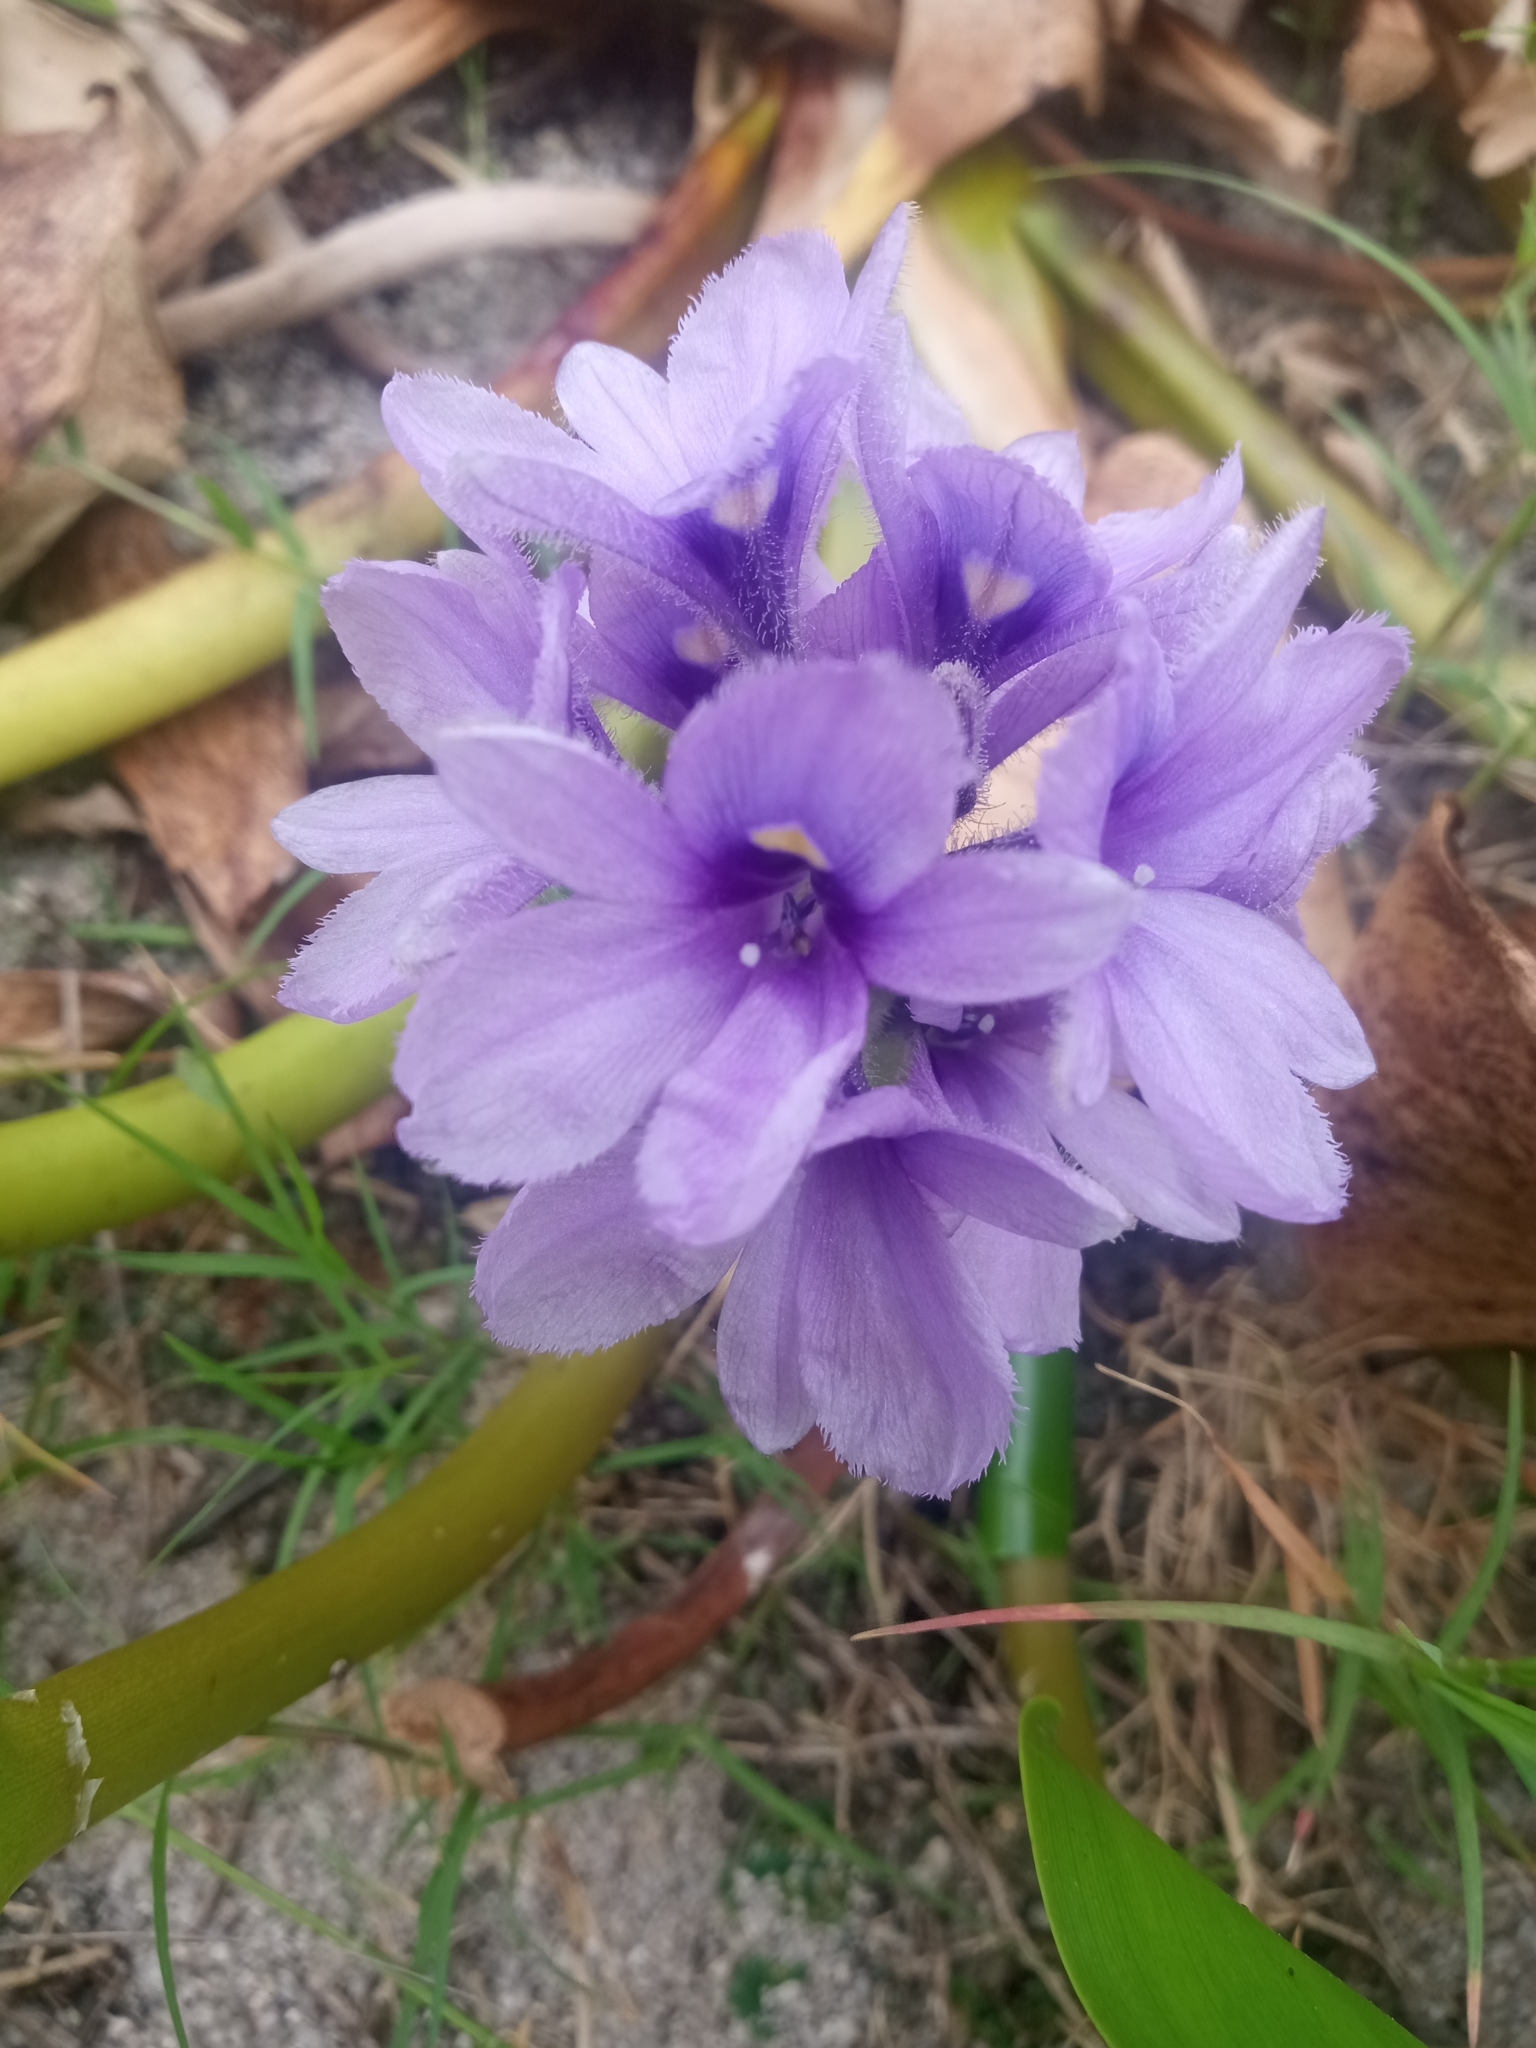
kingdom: Plantae
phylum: Tracheophyta
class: Liliopsida
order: Commelinales
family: Pontederiaceae
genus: Pontederia
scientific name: Pontederia azurea
